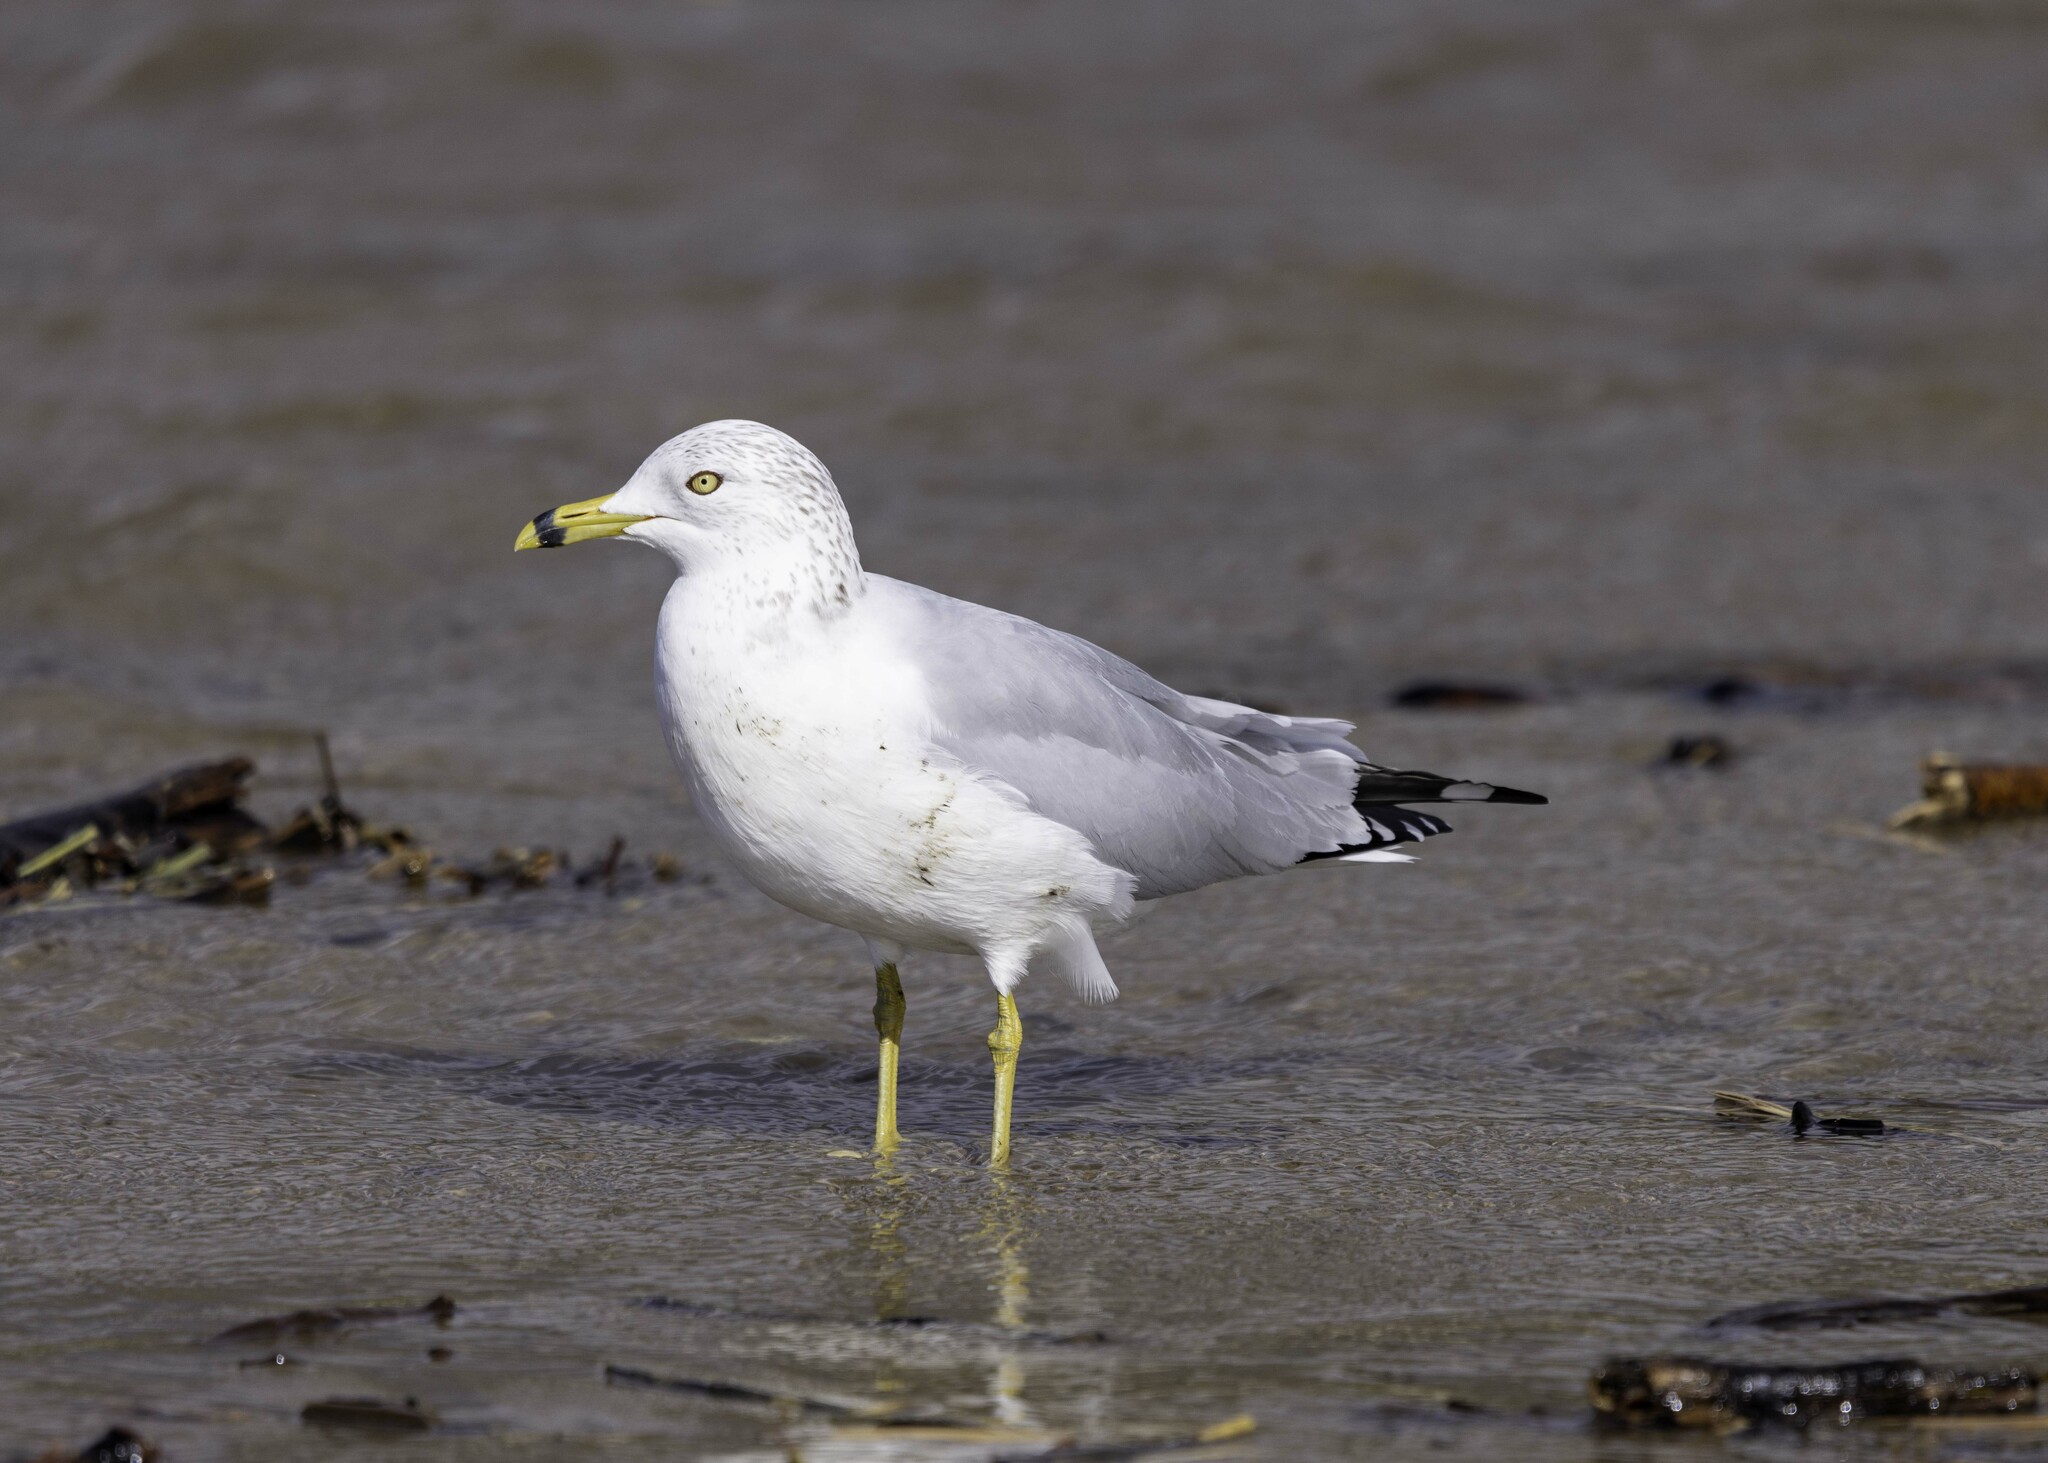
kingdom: Animalia
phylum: Chordata
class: Aves
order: Charadriiformes
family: Laridae
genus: Larus
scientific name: Larus delawarensis
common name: Ring-billed gull
